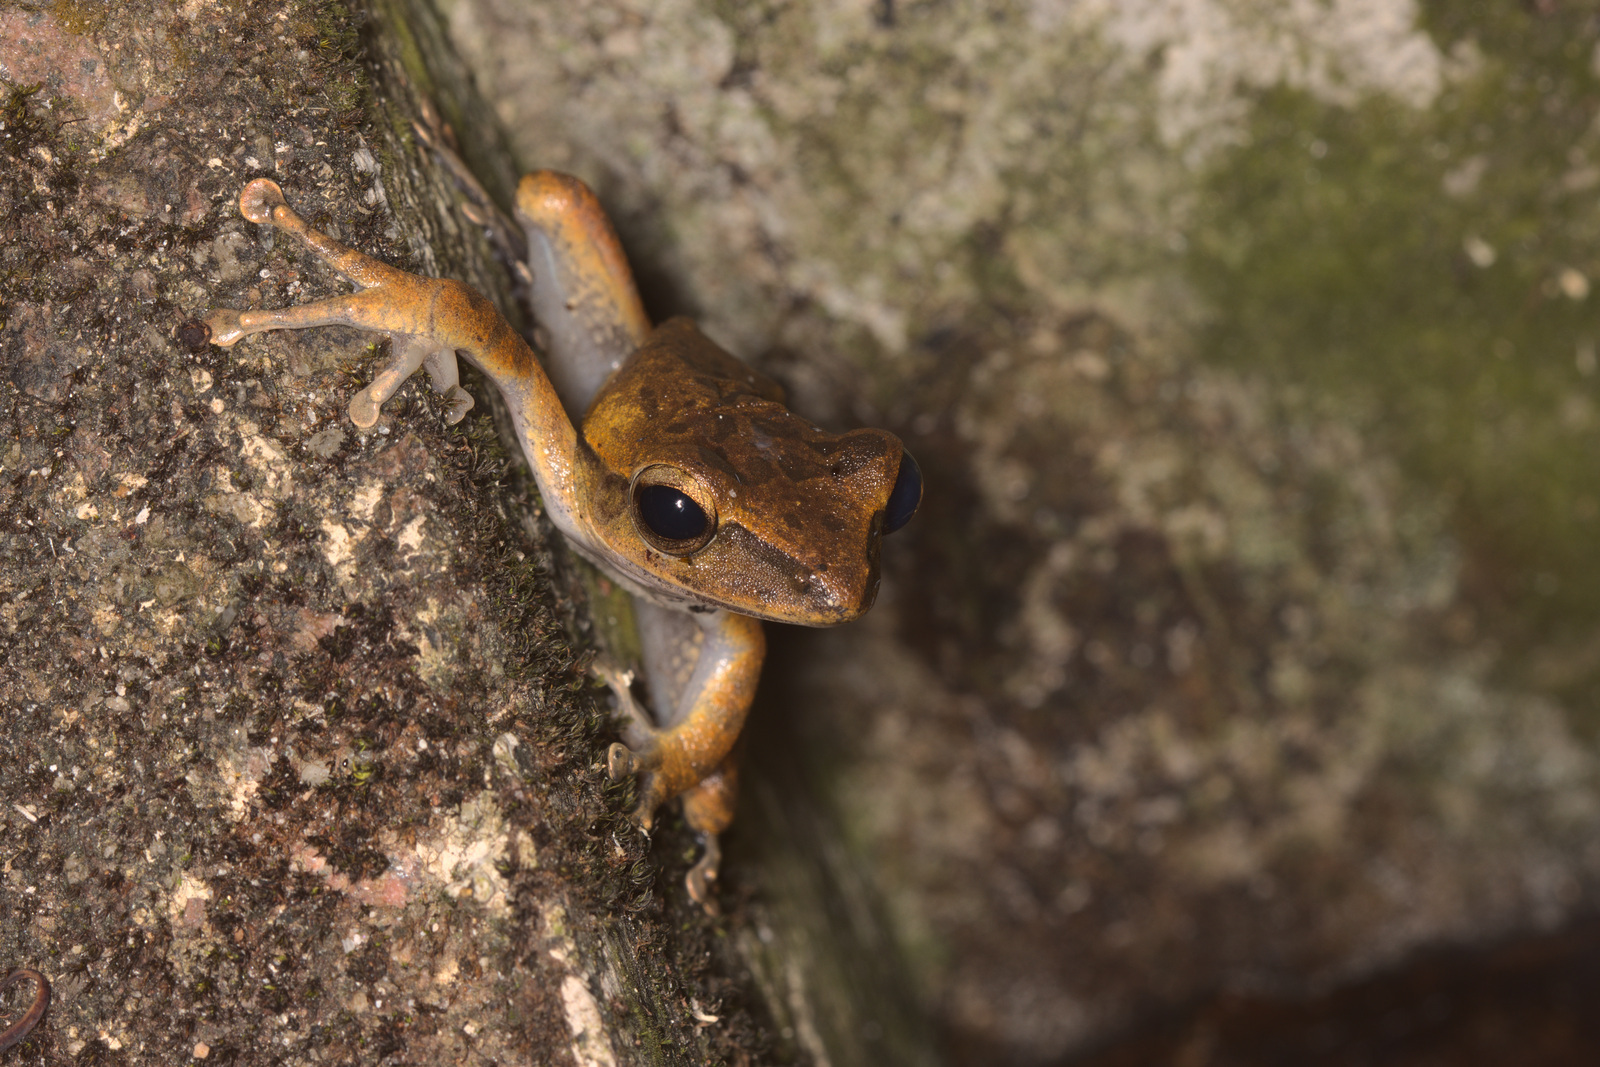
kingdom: Animalia
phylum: Chordata
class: Amphibia
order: Anura
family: Rhacophoridae
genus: Polypedates
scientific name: Polypedates leucomystax
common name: Common tree frog/four-lined tree frog
